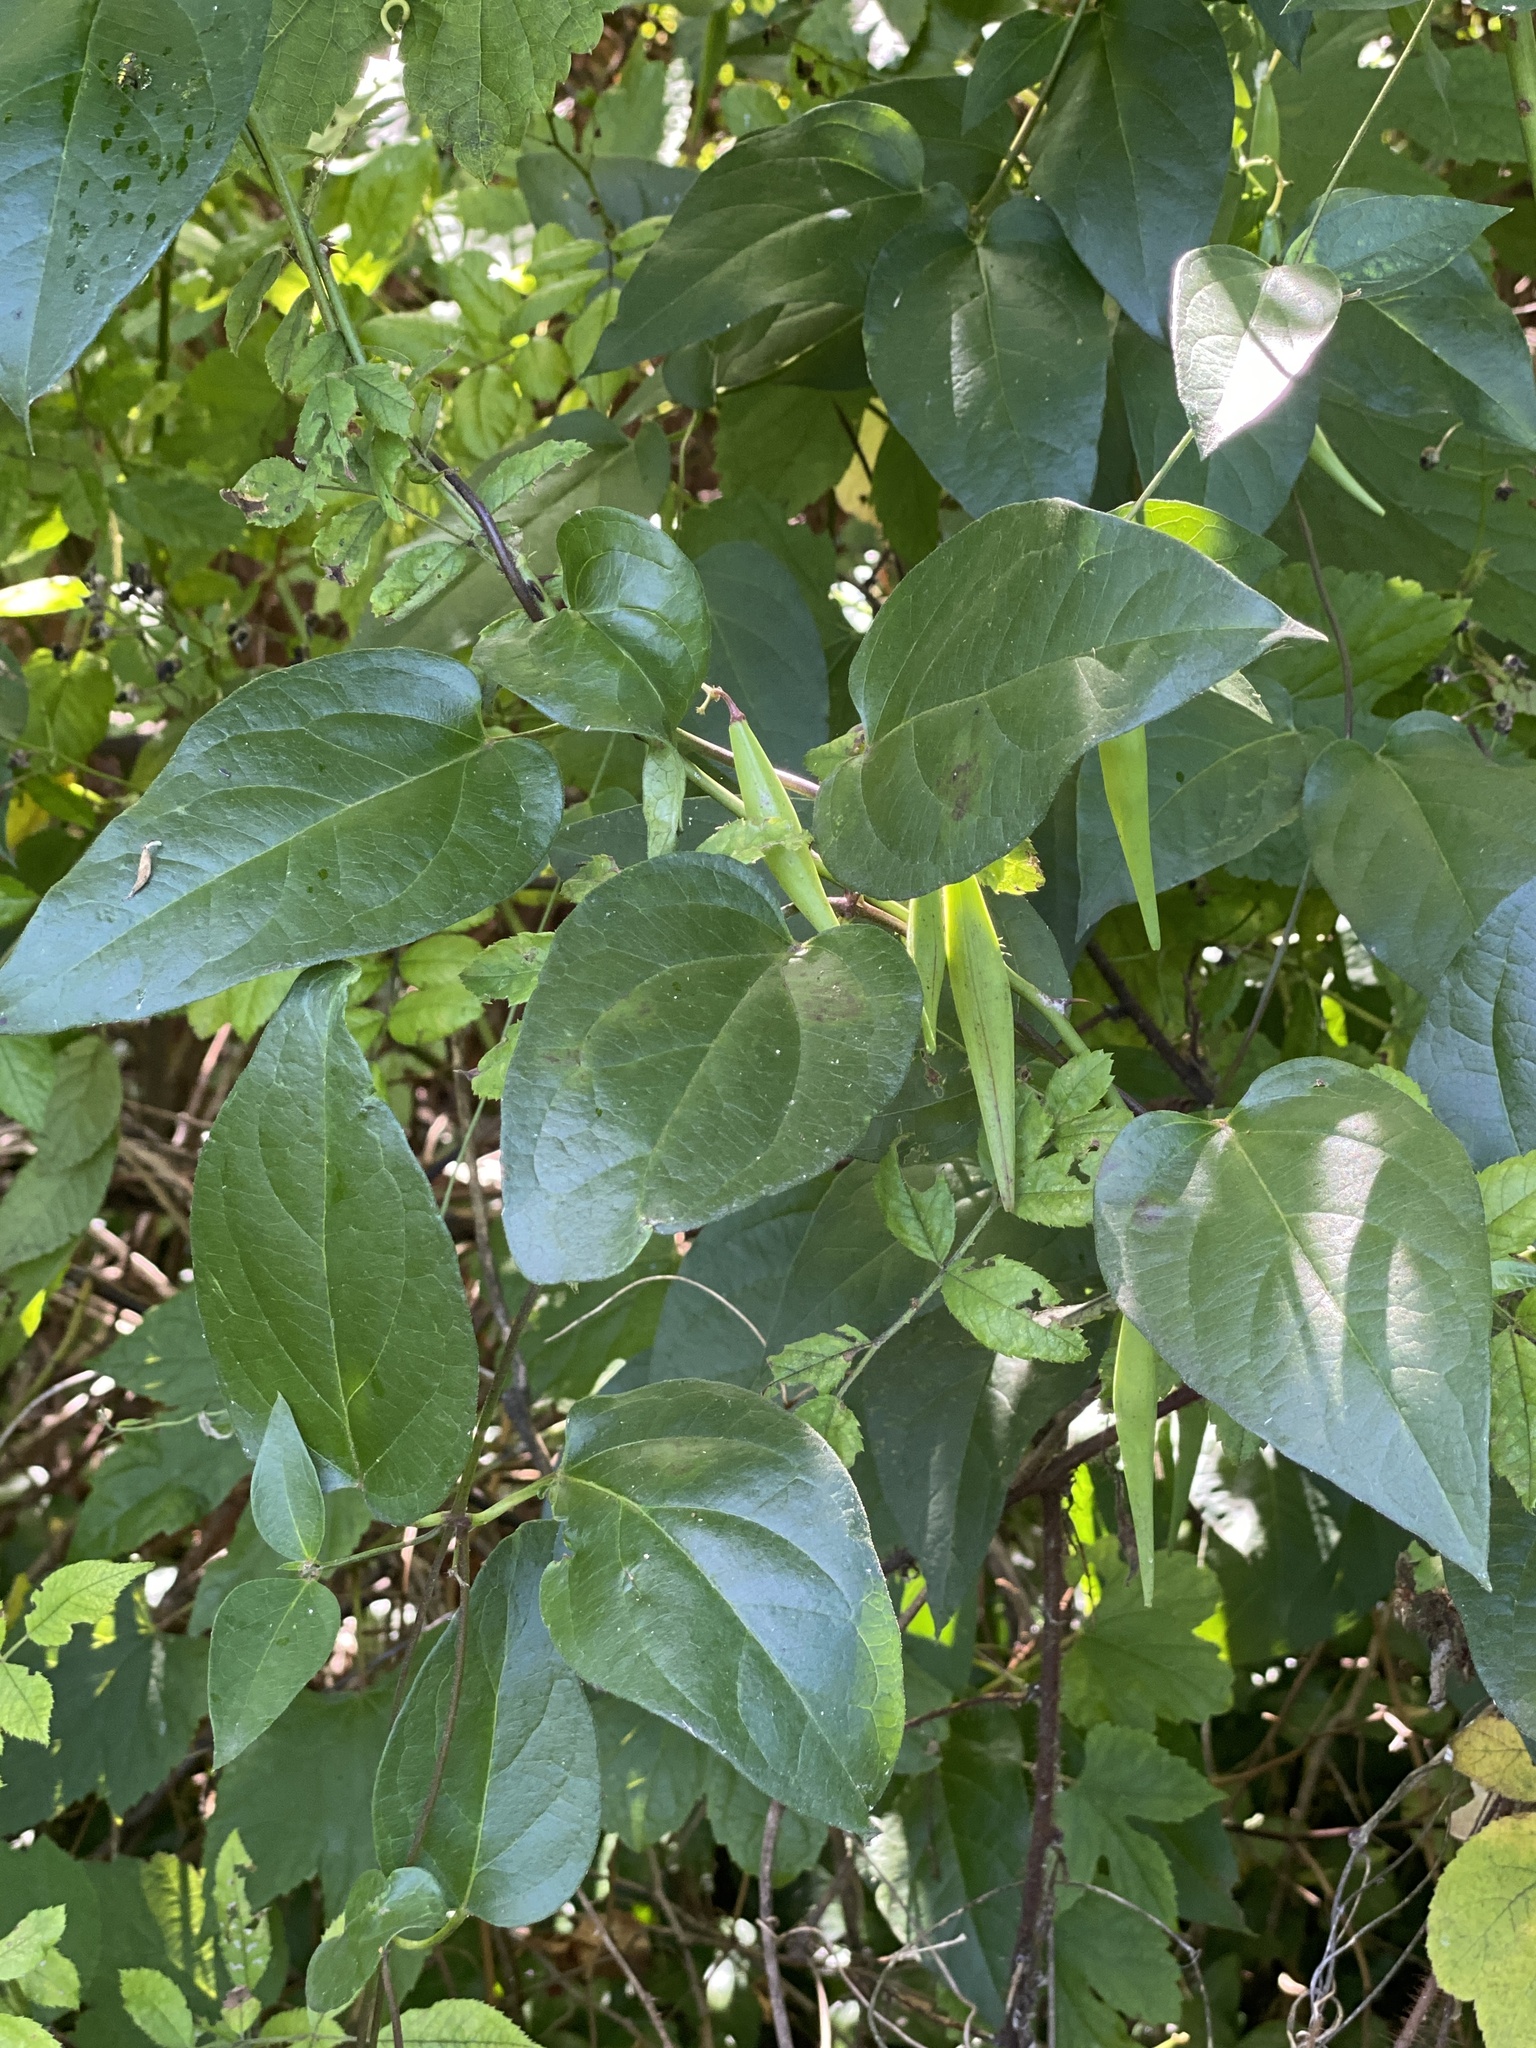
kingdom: Plantae
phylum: Tracheophyta
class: Magnoliopsida
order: Gentianales
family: Apocynaceae
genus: Vincetoxicum
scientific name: Vincetoxicum nigrum
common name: Black swallow-wort
